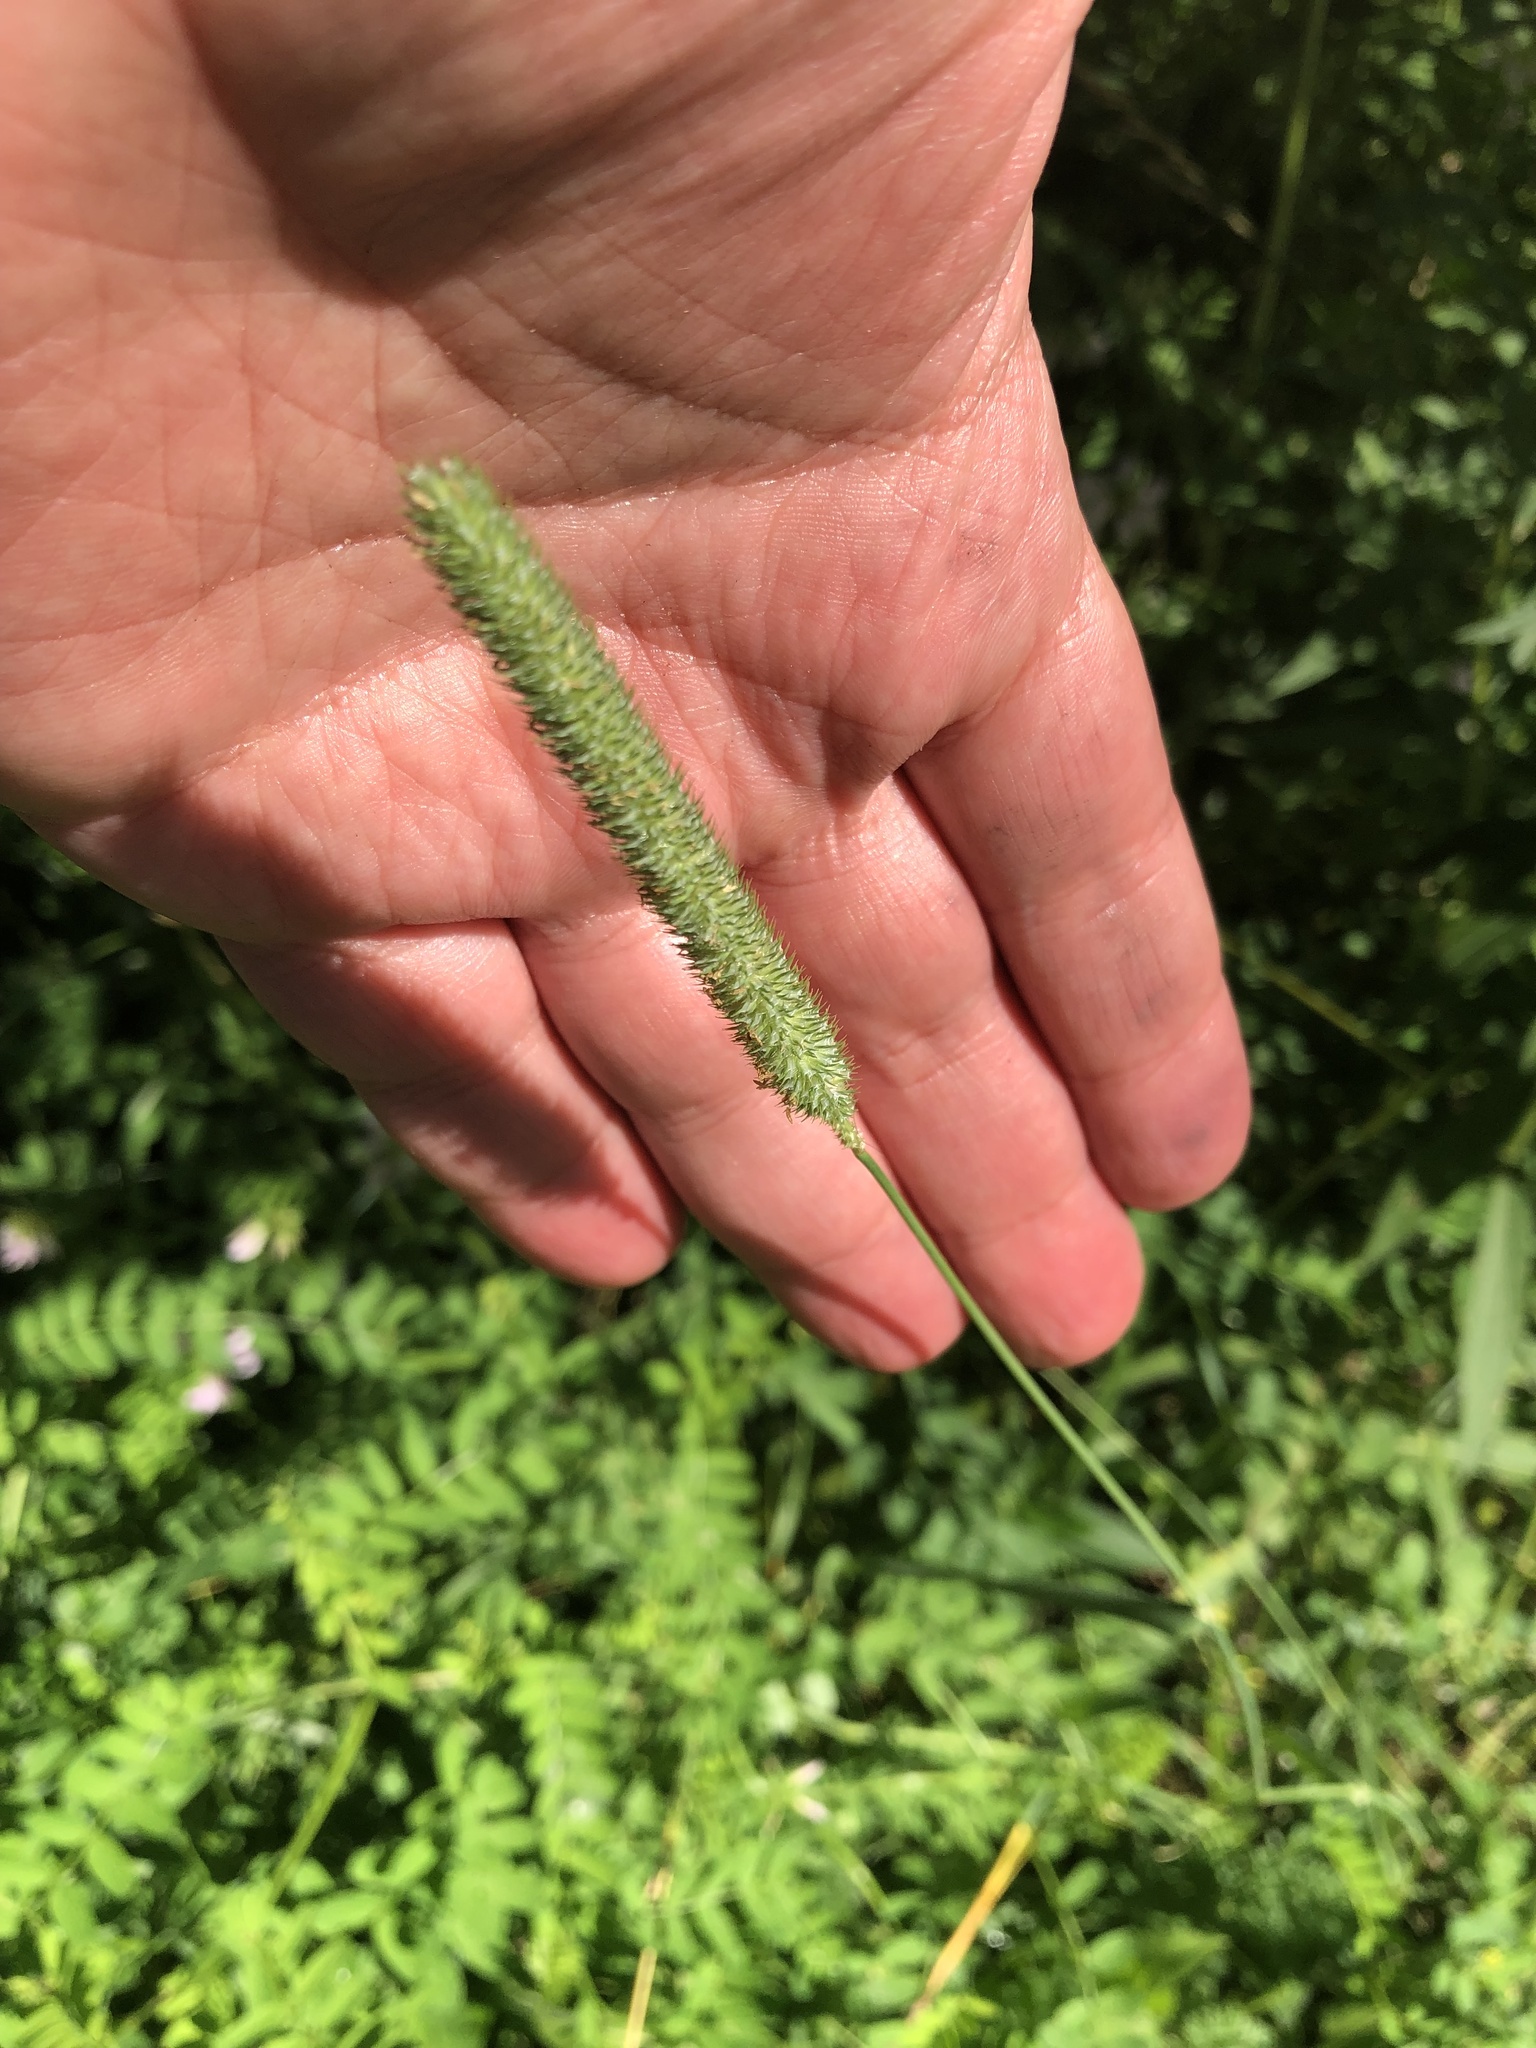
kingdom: Plantae
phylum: Tracheophyta
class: Liliopsida
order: Poales
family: Poaceae
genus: Phleum
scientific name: Phleum pratense
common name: Timothy grass
